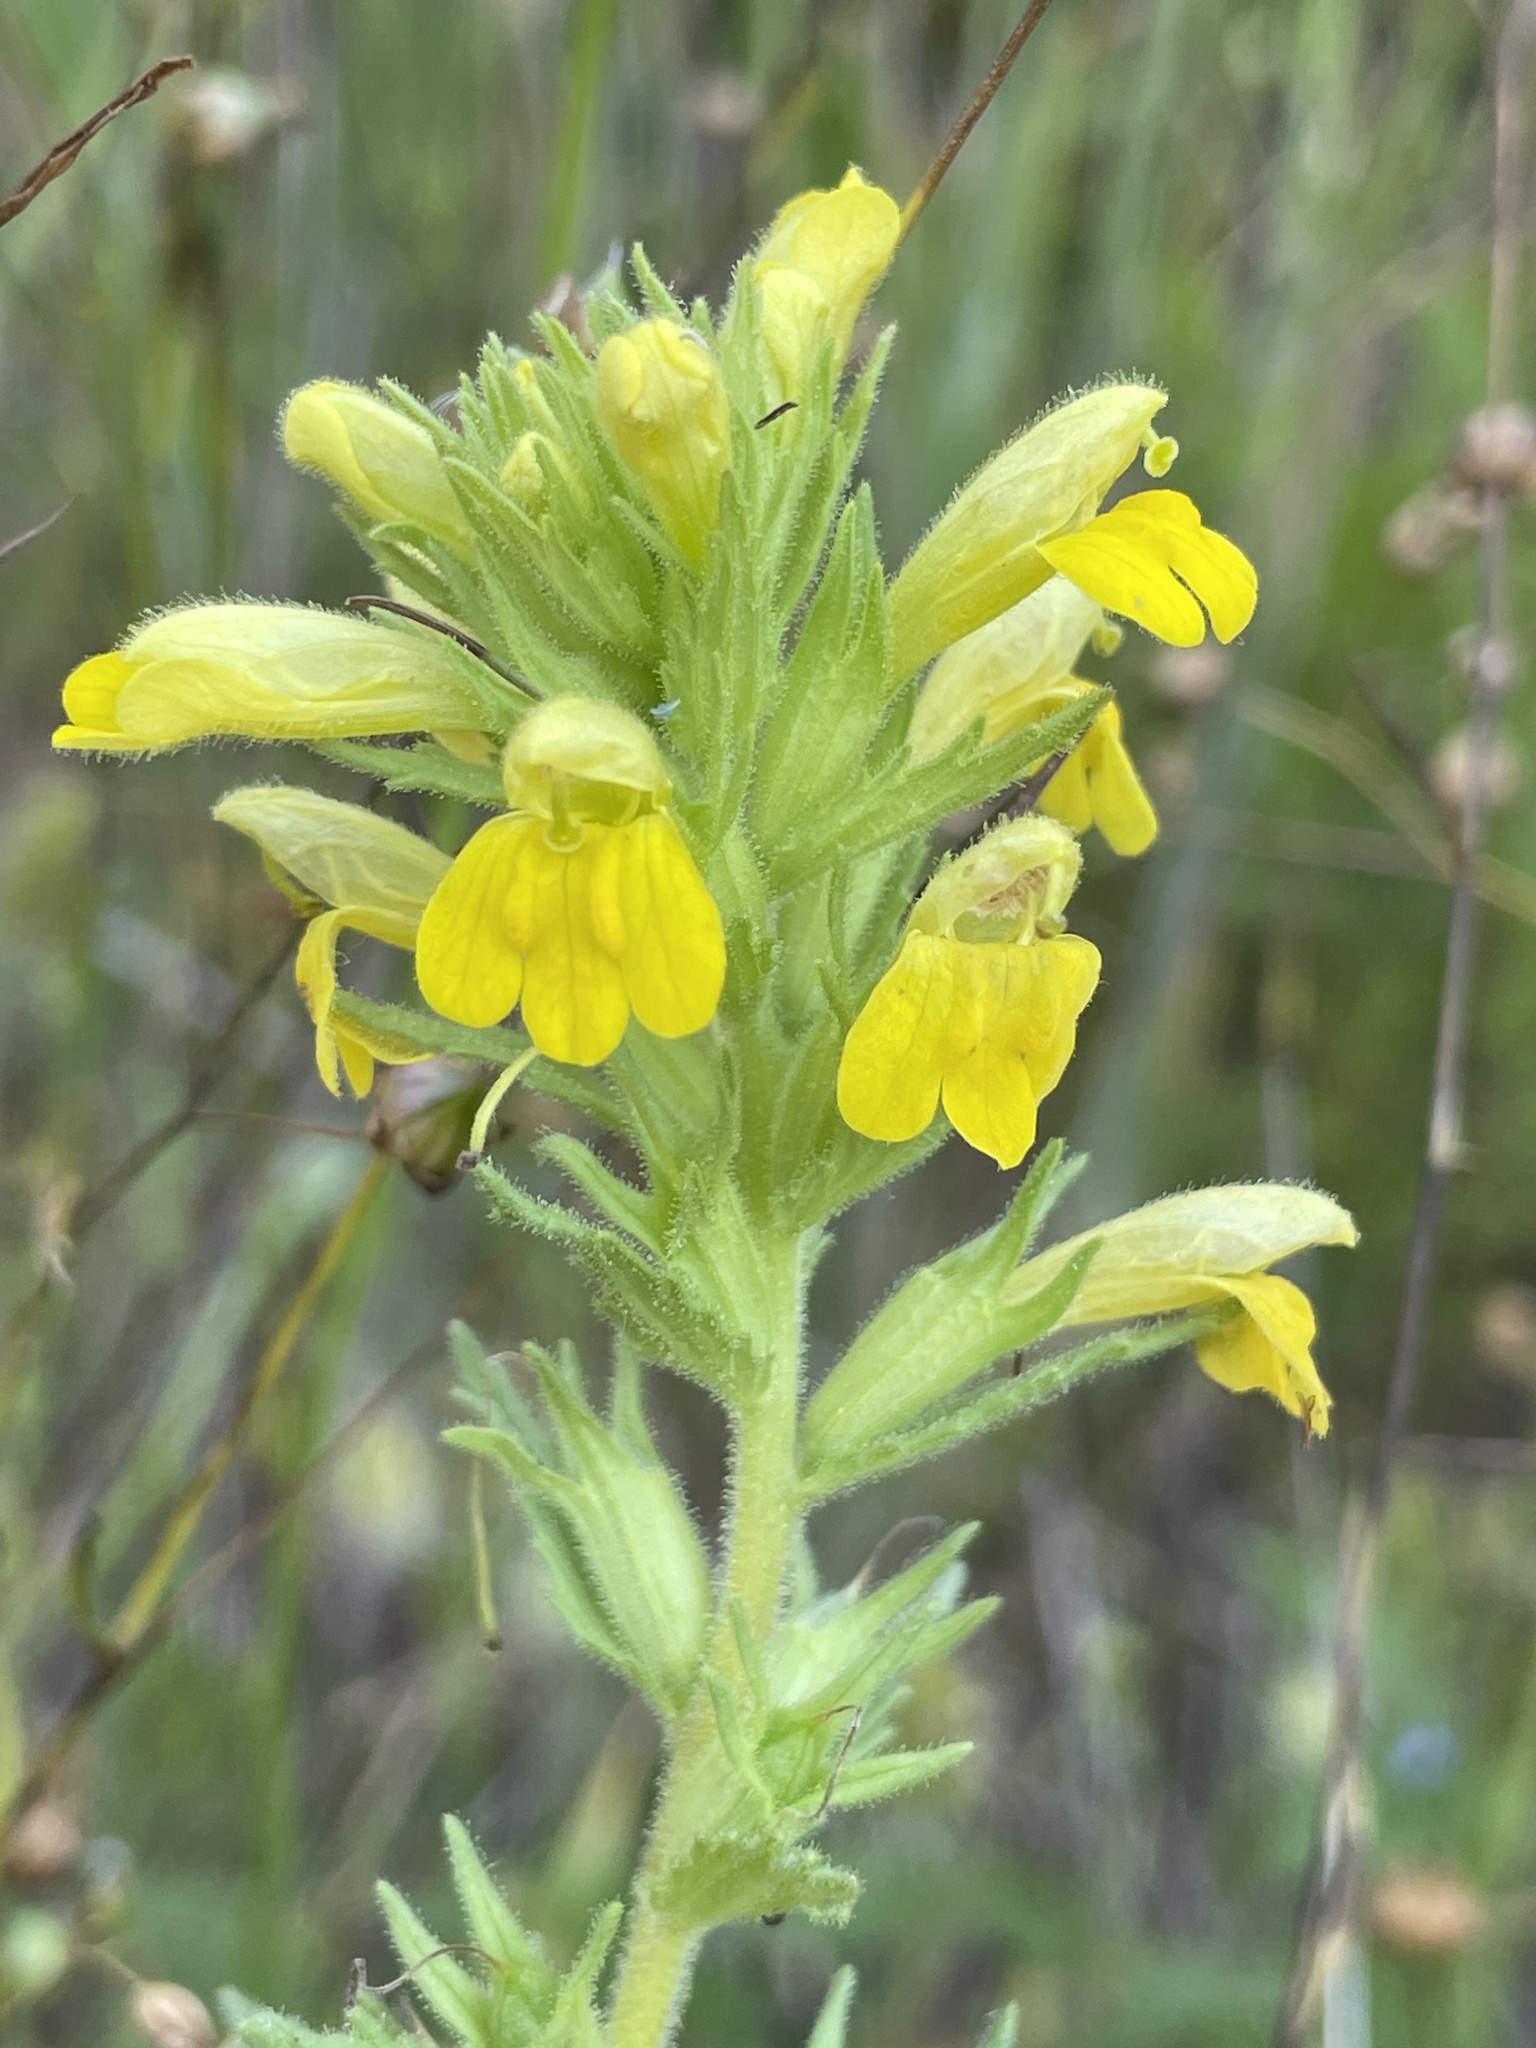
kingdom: Plantae
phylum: Tracheophyta
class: Magnoliopsida
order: Lamiales
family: Orobanchaceae
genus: Bellardia
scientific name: Bellardia viscosa
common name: Sticky parentucellia
